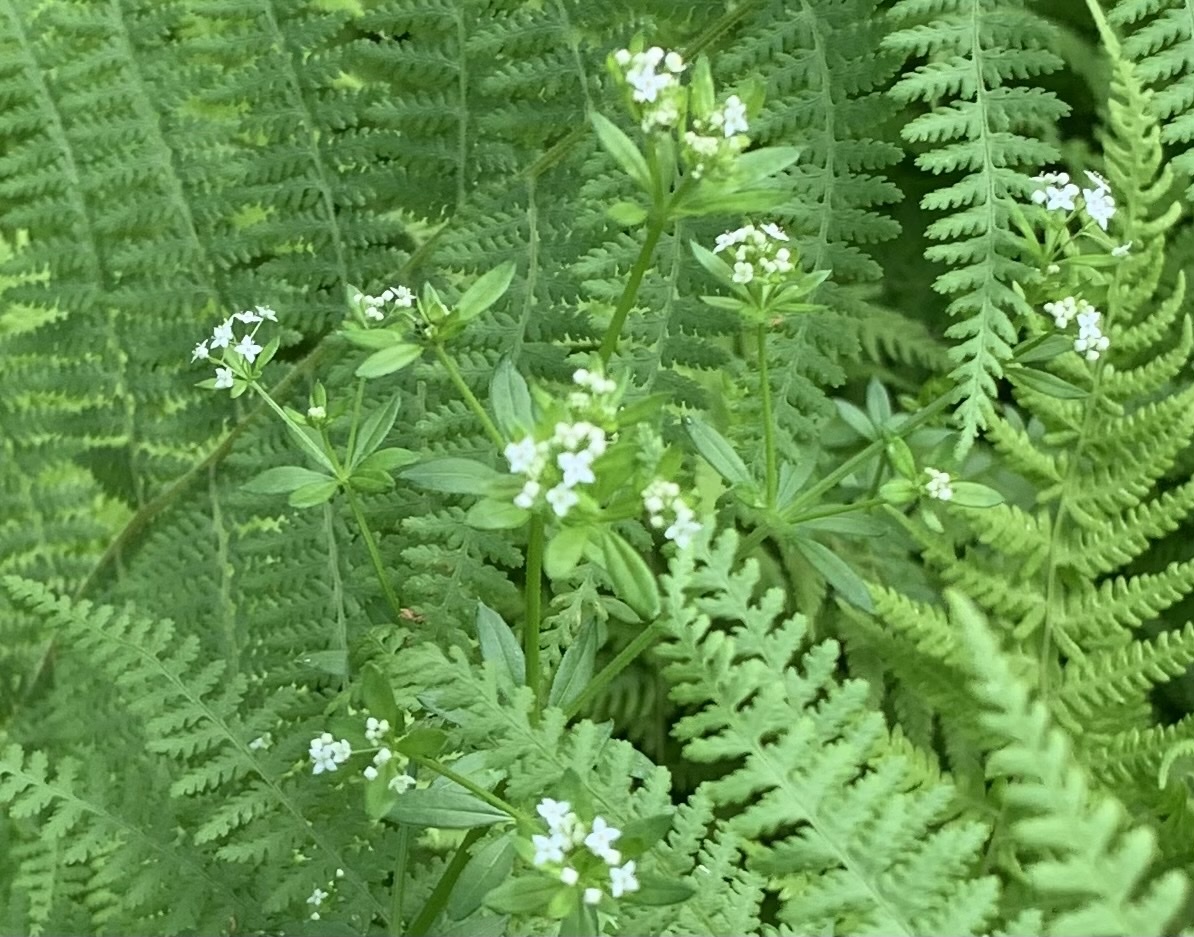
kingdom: Plantae
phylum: Tracheophyta
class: Magnoliopsida
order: Gentianales
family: Rubiaceae
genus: Galium
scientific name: Galium asprellum
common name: Rough bedstraw
